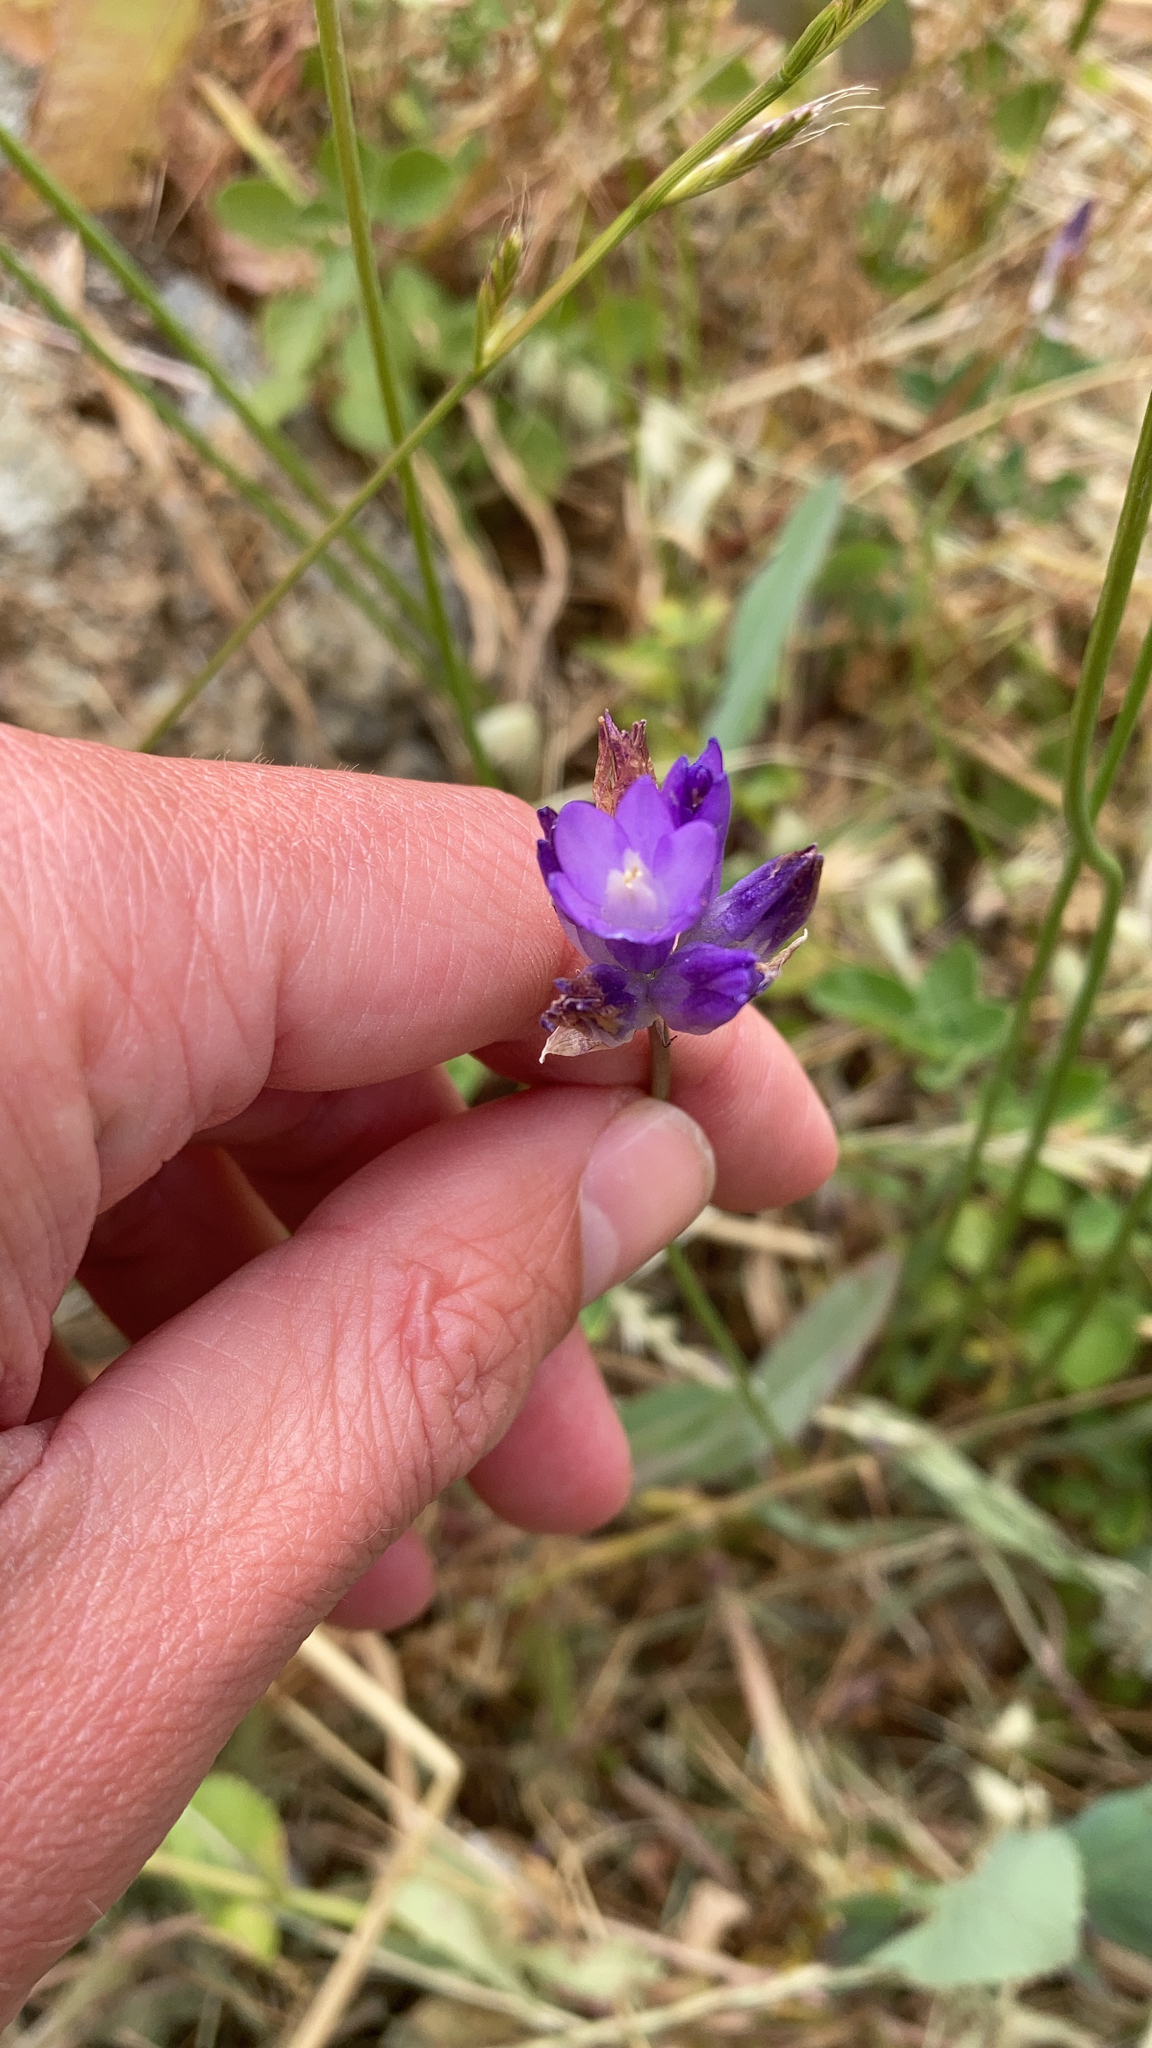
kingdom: Plantae
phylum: Tracheophyta
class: Liliopsida
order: Asparagales
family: Asparagaceae
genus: Dipterostemon
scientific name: Dipterostemon capitatus
